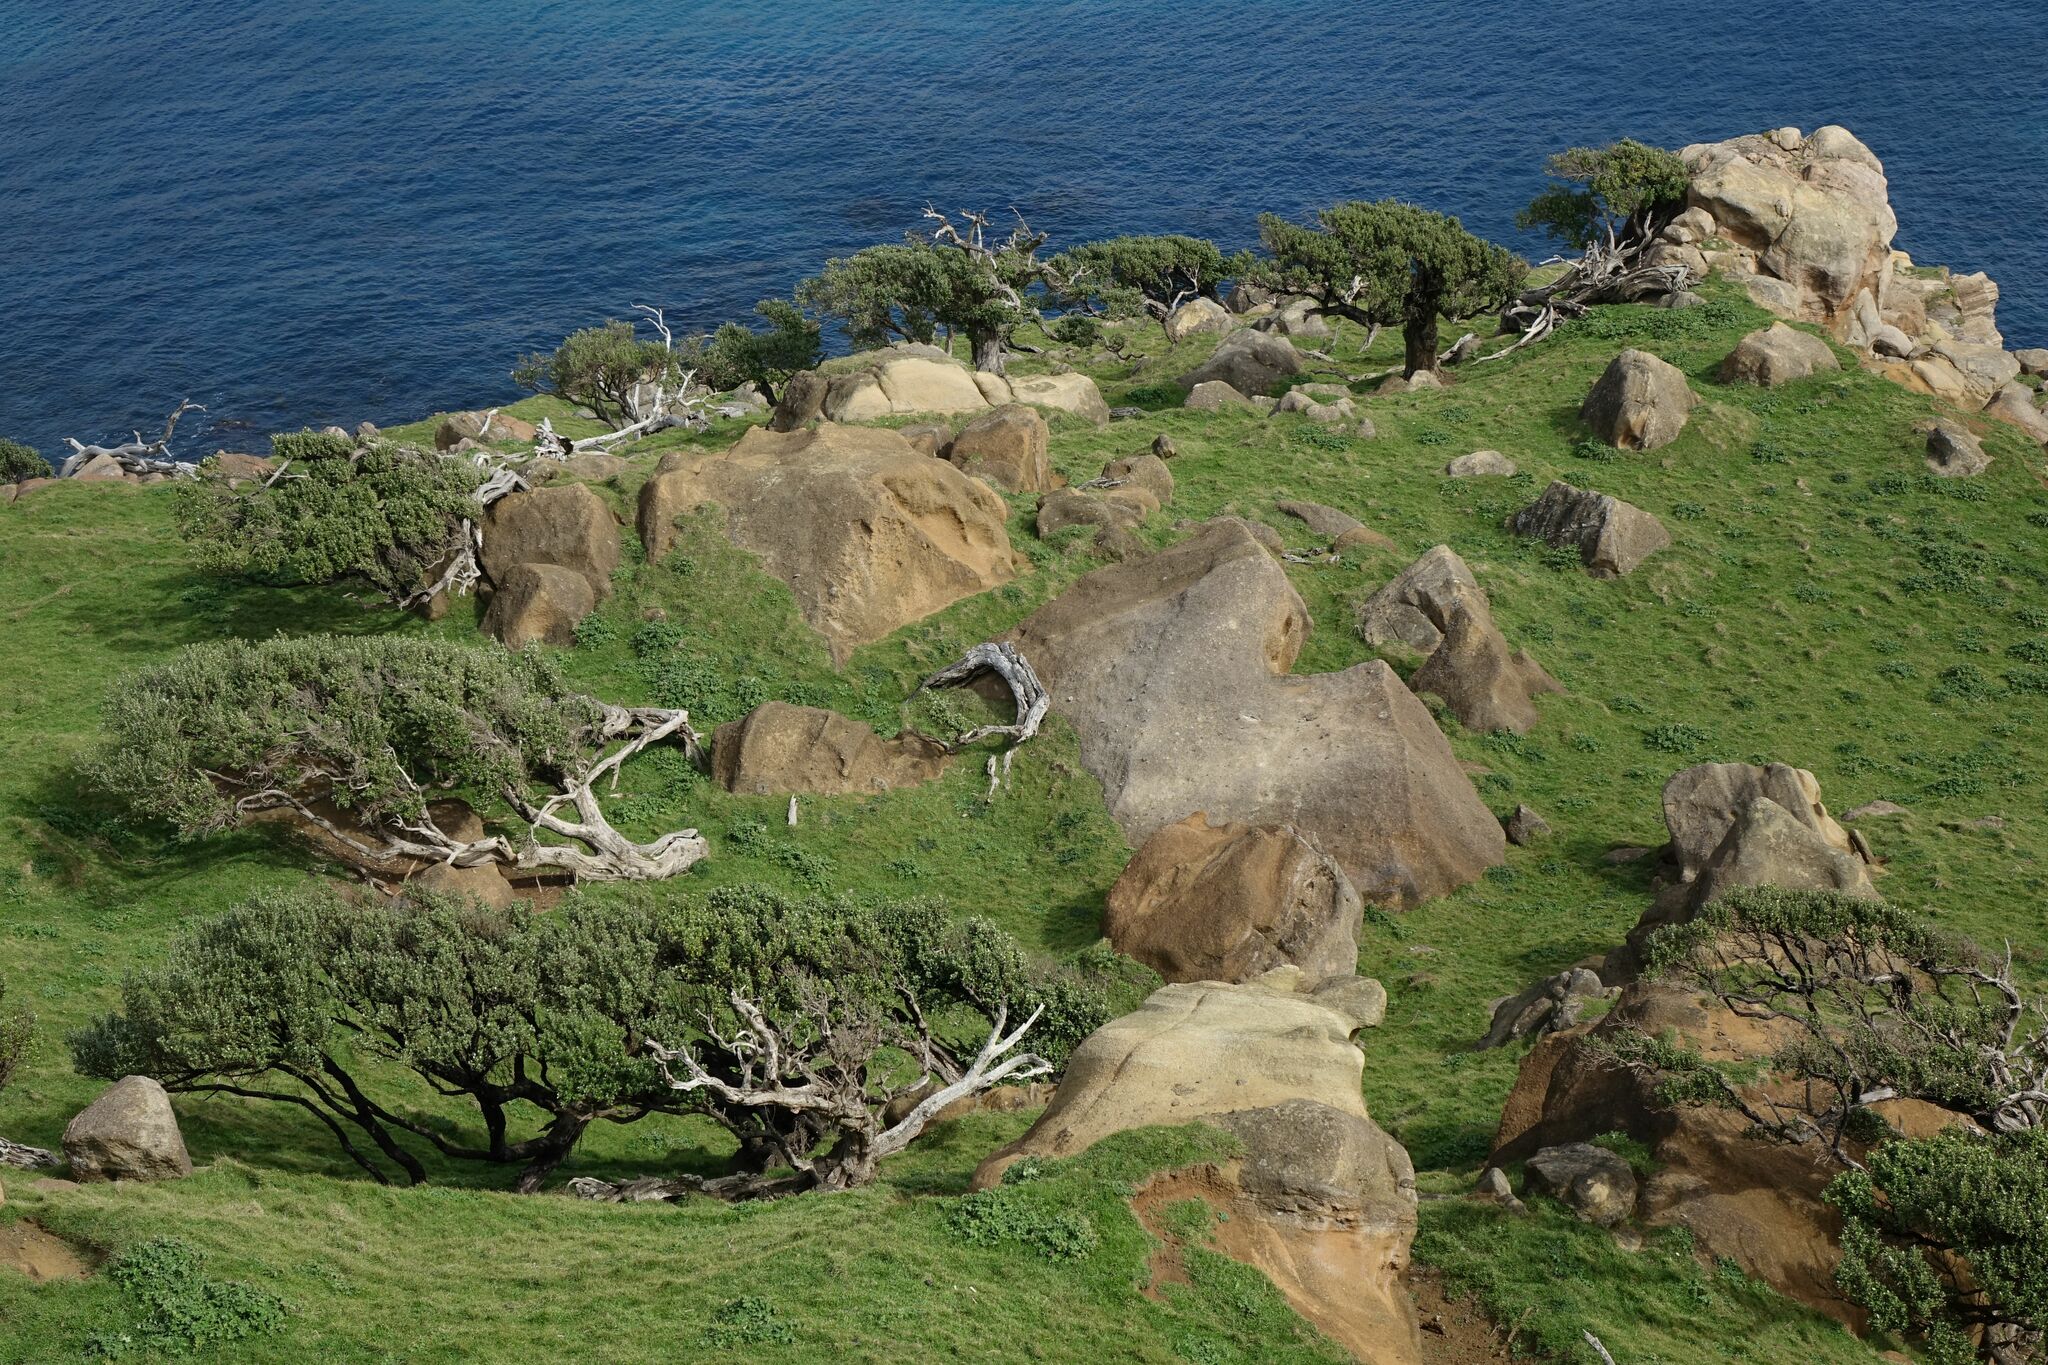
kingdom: Plantae
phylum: Tracheophyta
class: Magnoliopsida
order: Asterales
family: Asteraceae
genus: Olearia
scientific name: Olearia traversiorum
